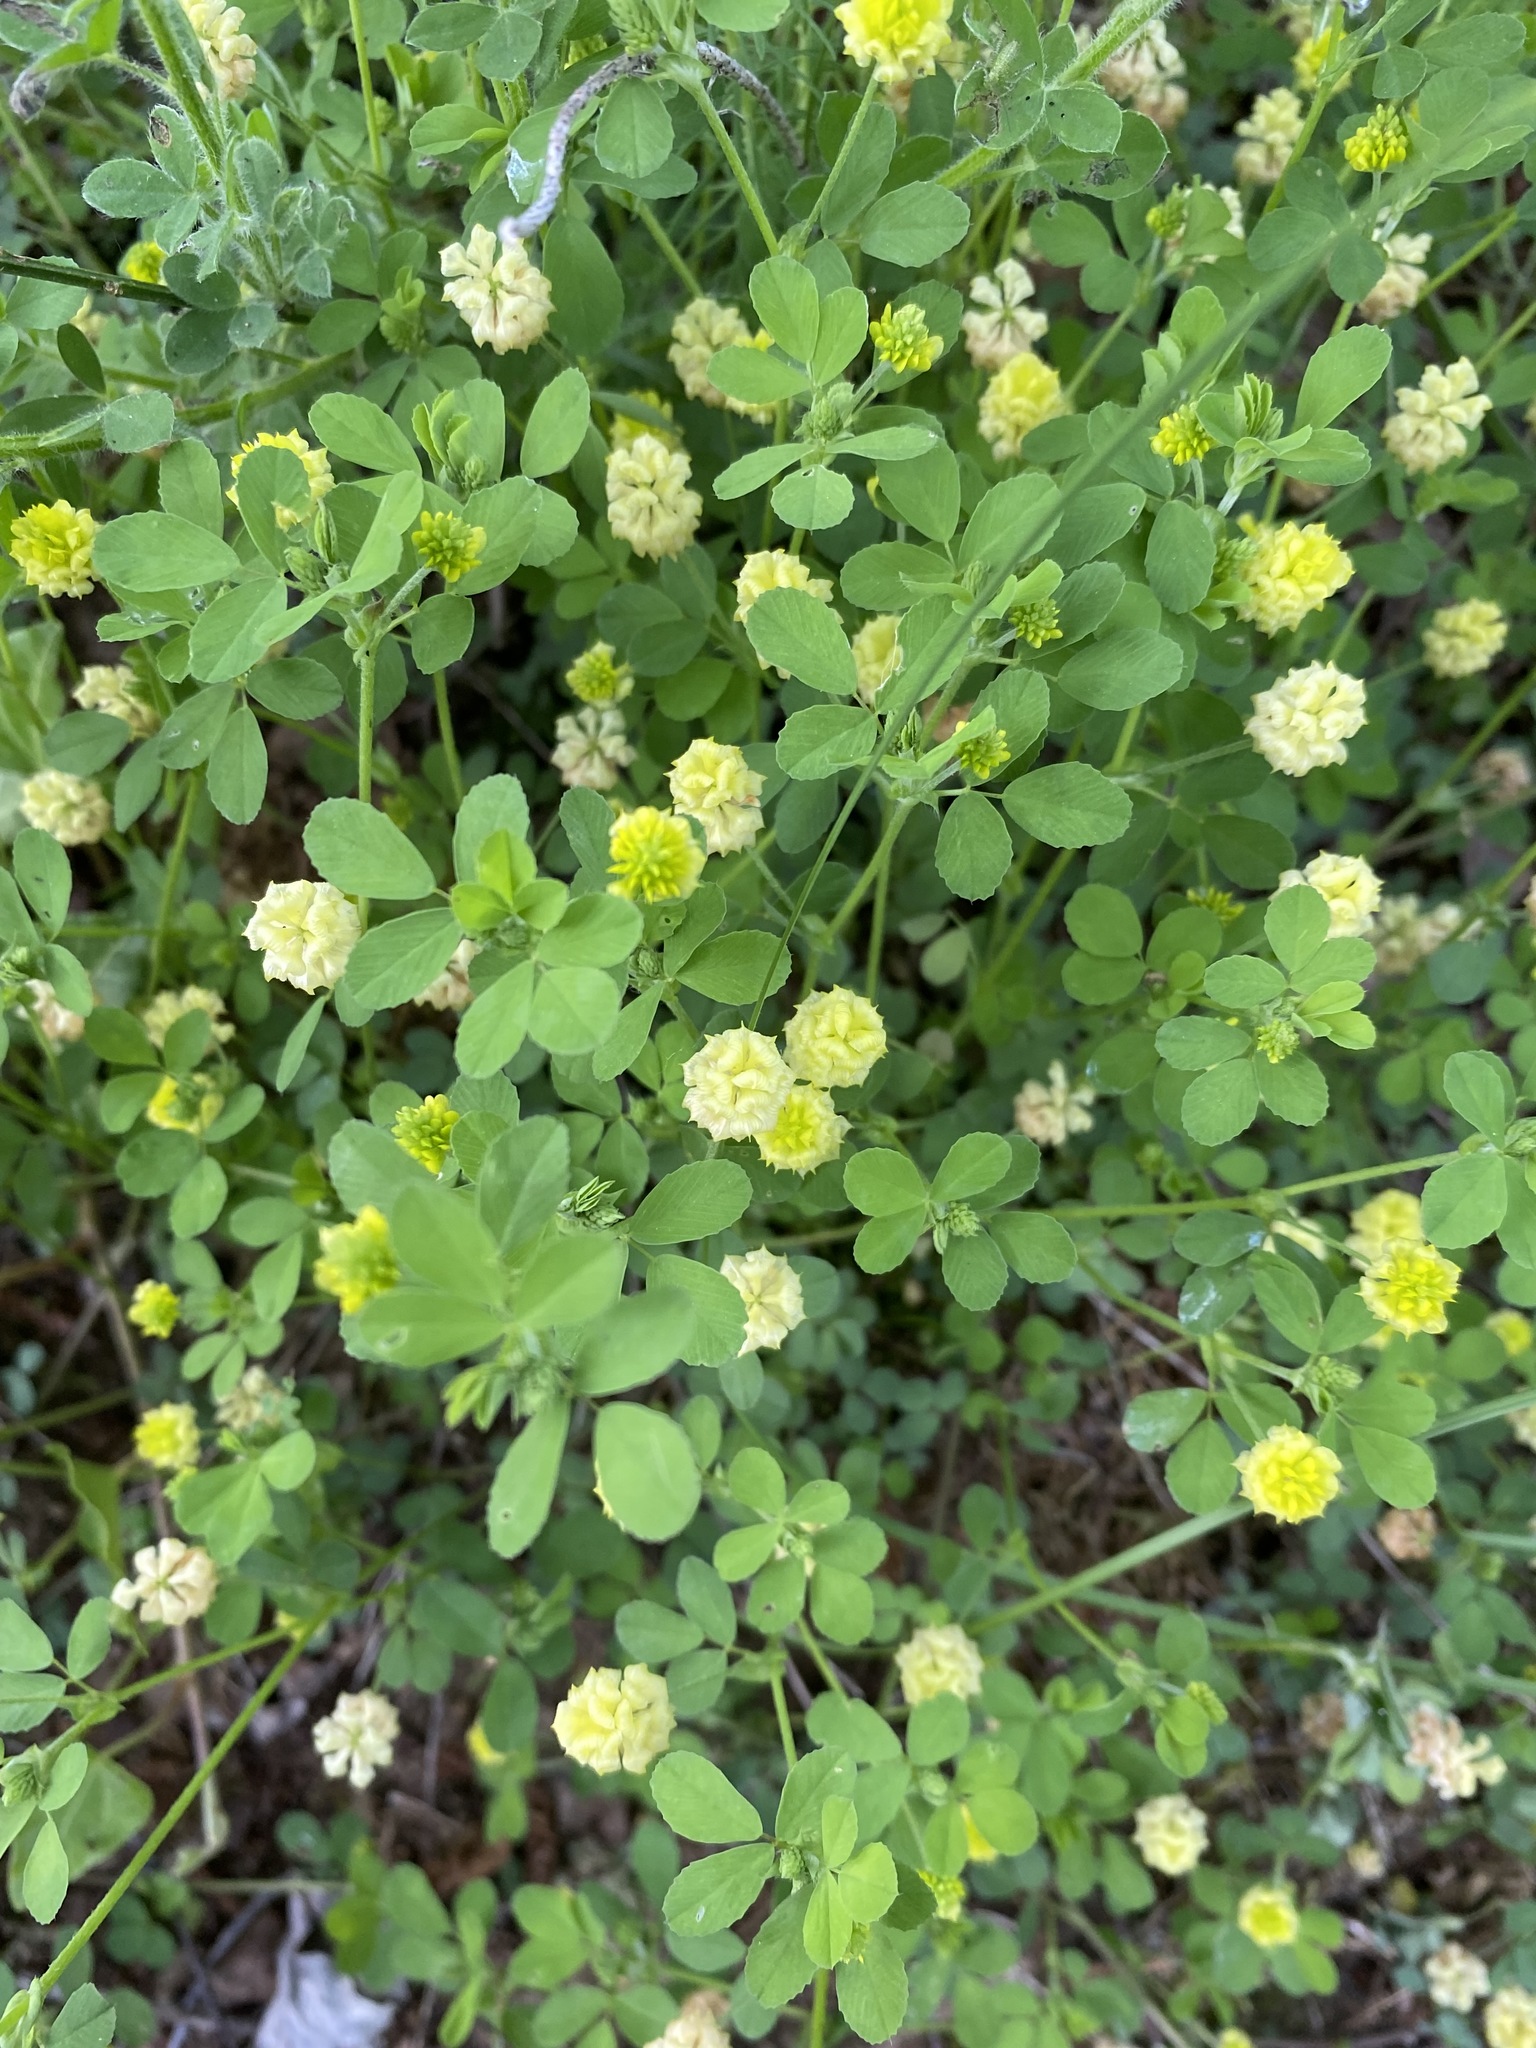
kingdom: Plantae
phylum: Tracheophyta
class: Magnoliopsida
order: Fabales
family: Fabaceae
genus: Trifolium
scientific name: Trifolium campestre
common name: Field clover
